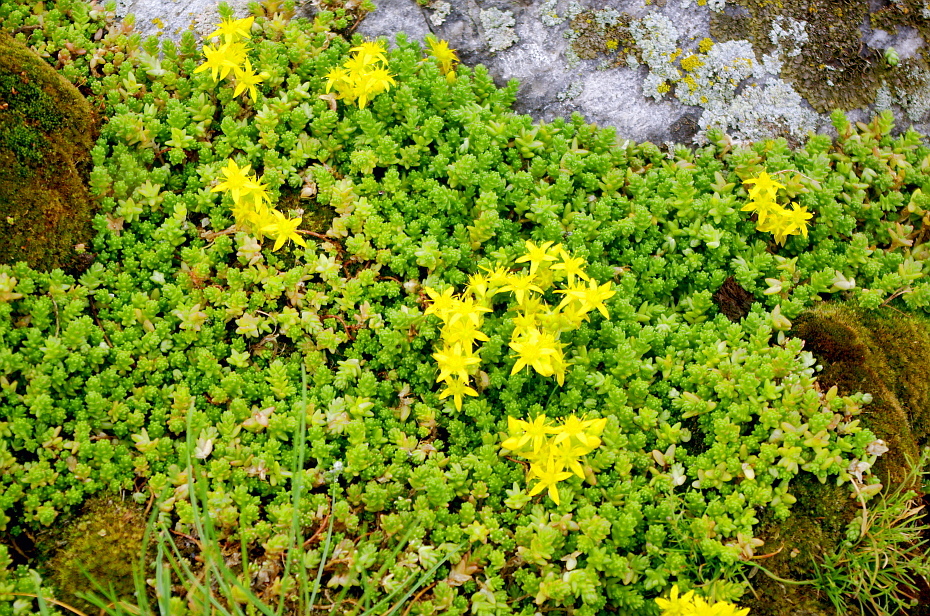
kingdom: Plantae
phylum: Tracheophyta
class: Magnoliopsida
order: Saxifragales
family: Crassulaceae
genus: Sedum
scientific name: Sedum acre
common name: Biting stonecrop
